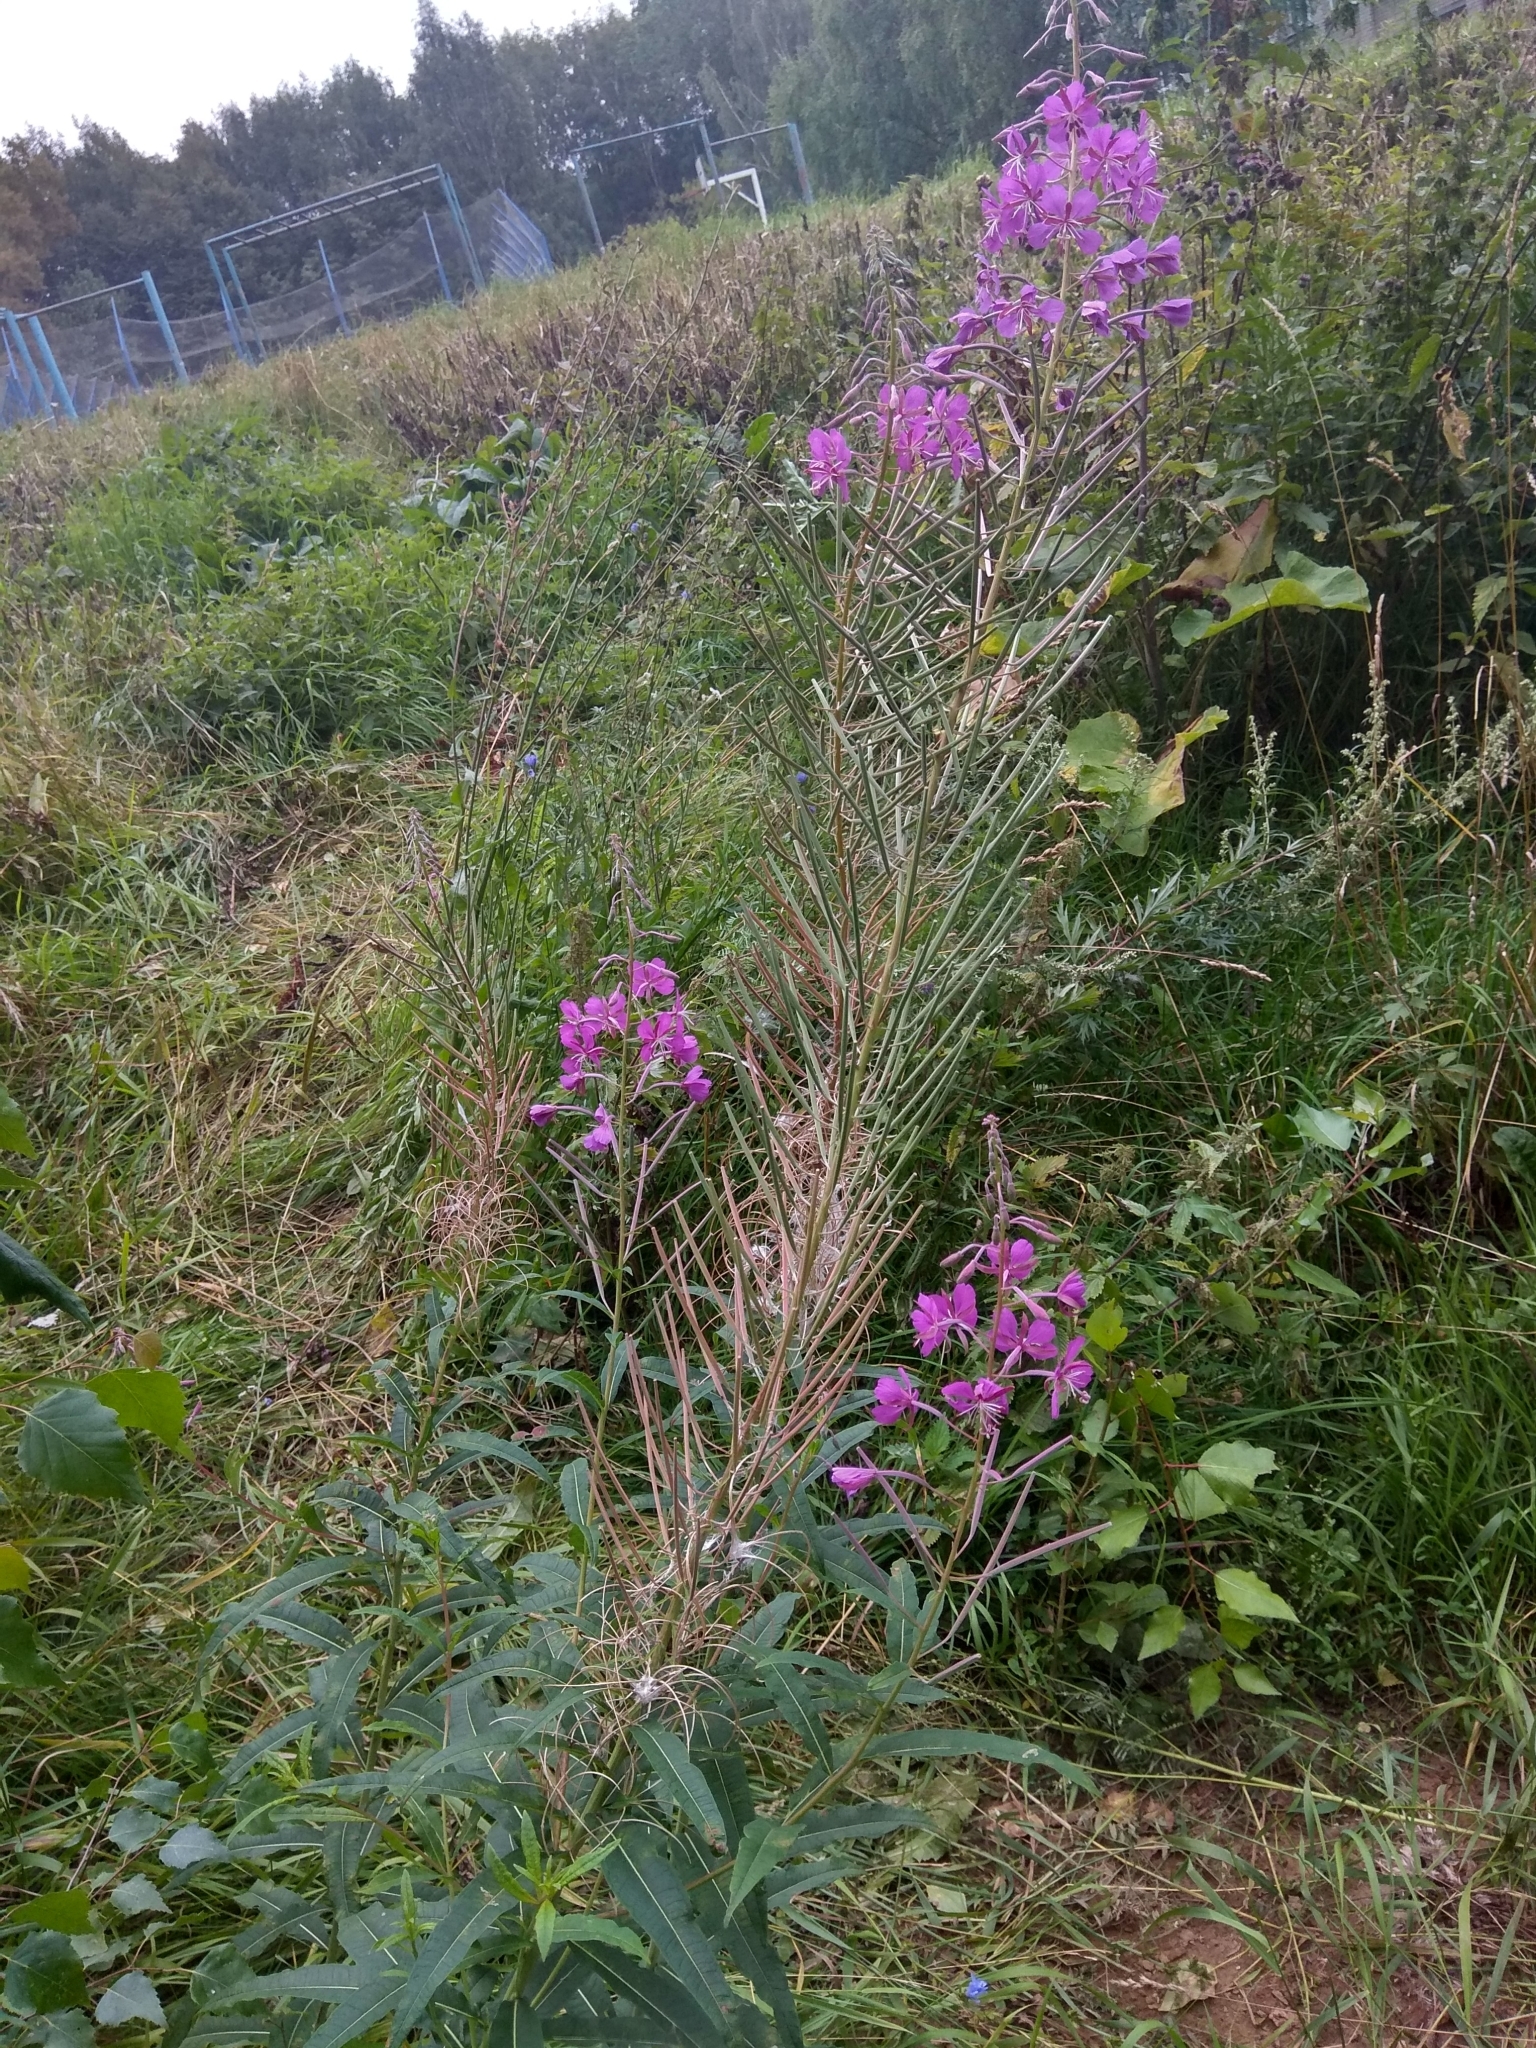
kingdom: Plantae
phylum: Tracheophyta
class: Magnoliopsida
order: Myrtales
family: Onagraceae
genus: Chamaenerion
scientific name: Chamaenerion angustifolium
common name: Fireweed
